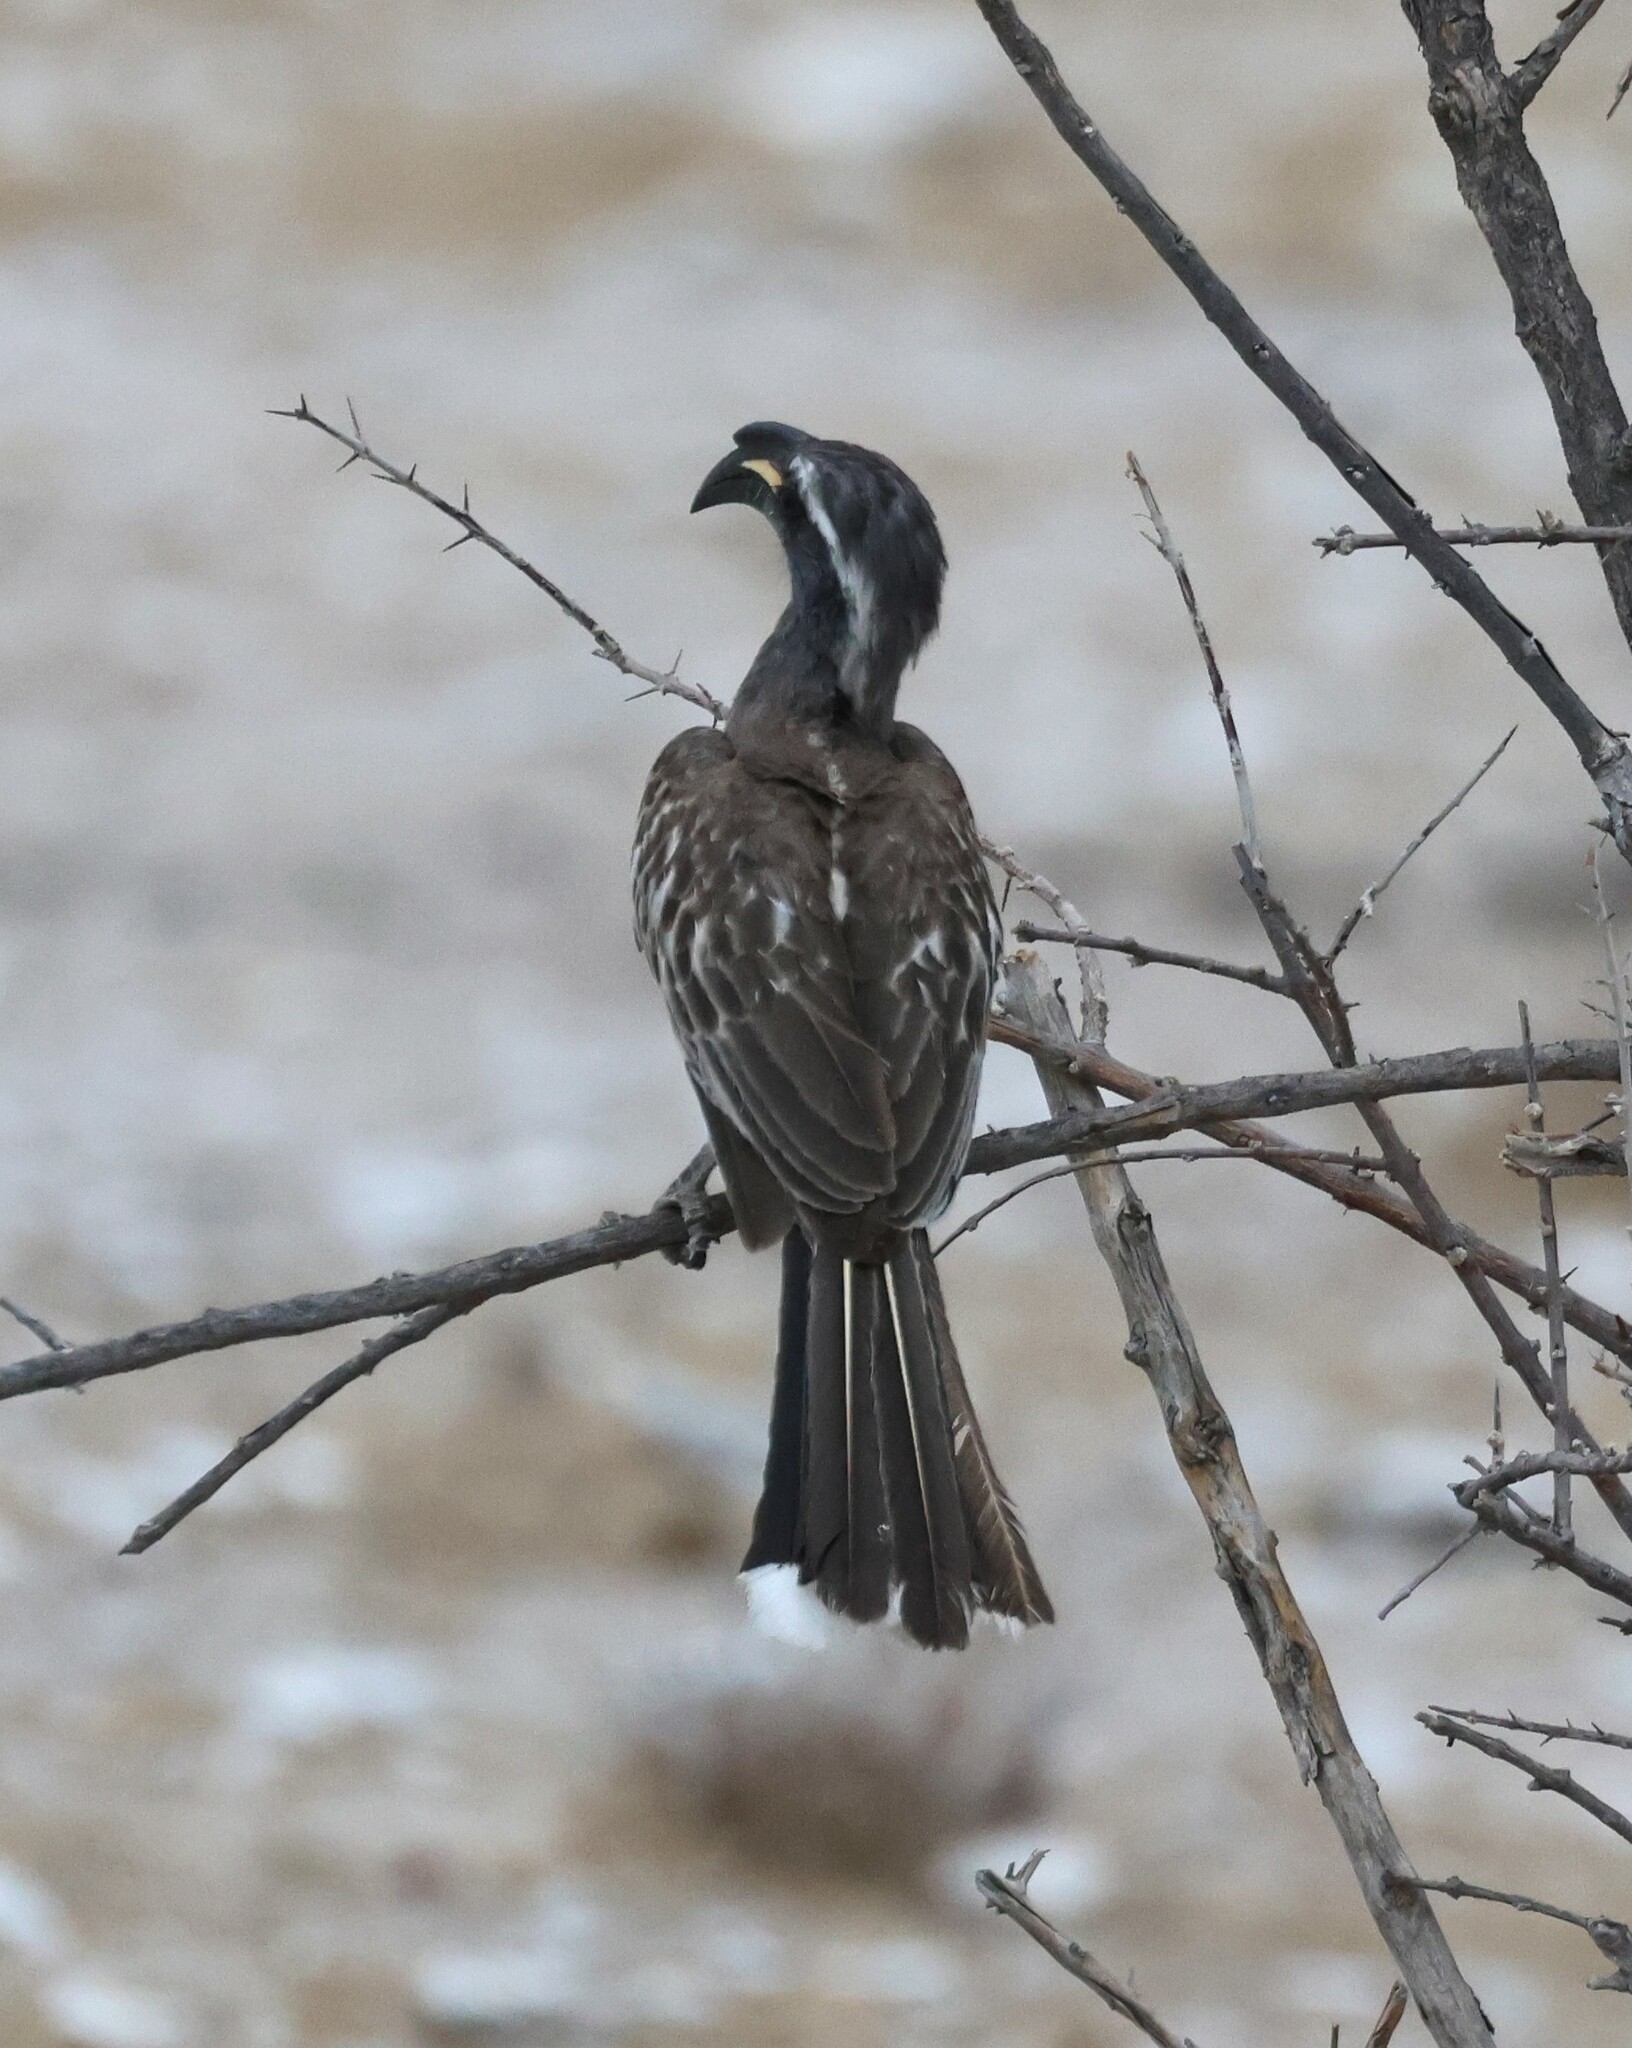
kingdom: Animalia
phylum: Chordata
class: Aves
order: Bucerotiformes
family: Bucerotidae
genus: Lophoceros
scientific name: Lophoceros nasutus
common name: African grey hornbill
